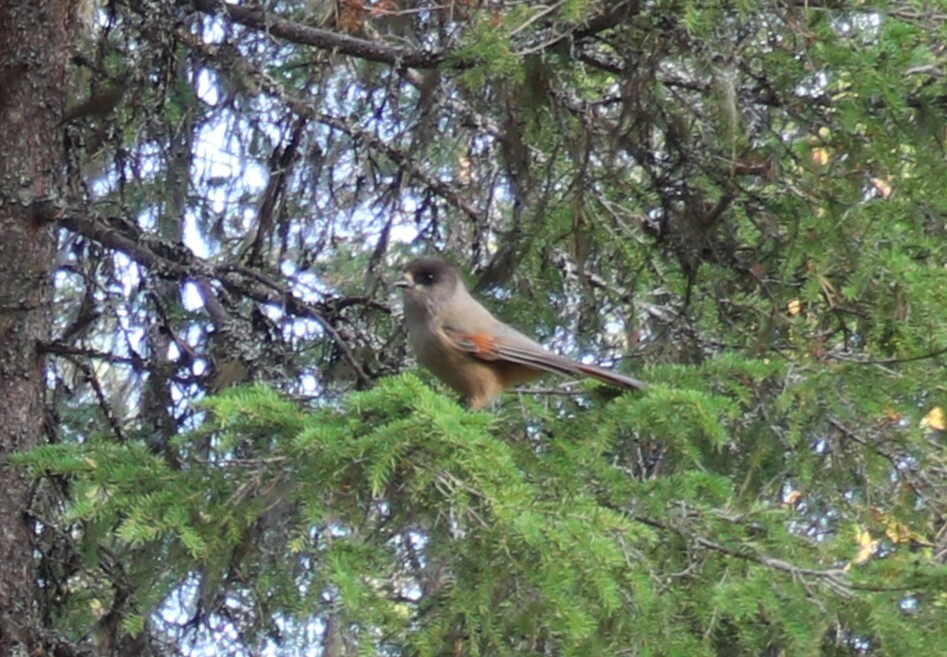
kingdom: Animalia
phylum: Chordata
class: Aves
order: Passeriformes
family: Corvidae
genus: Perisoreus
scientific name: Perisoreus infaustus
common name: Siberian jay
